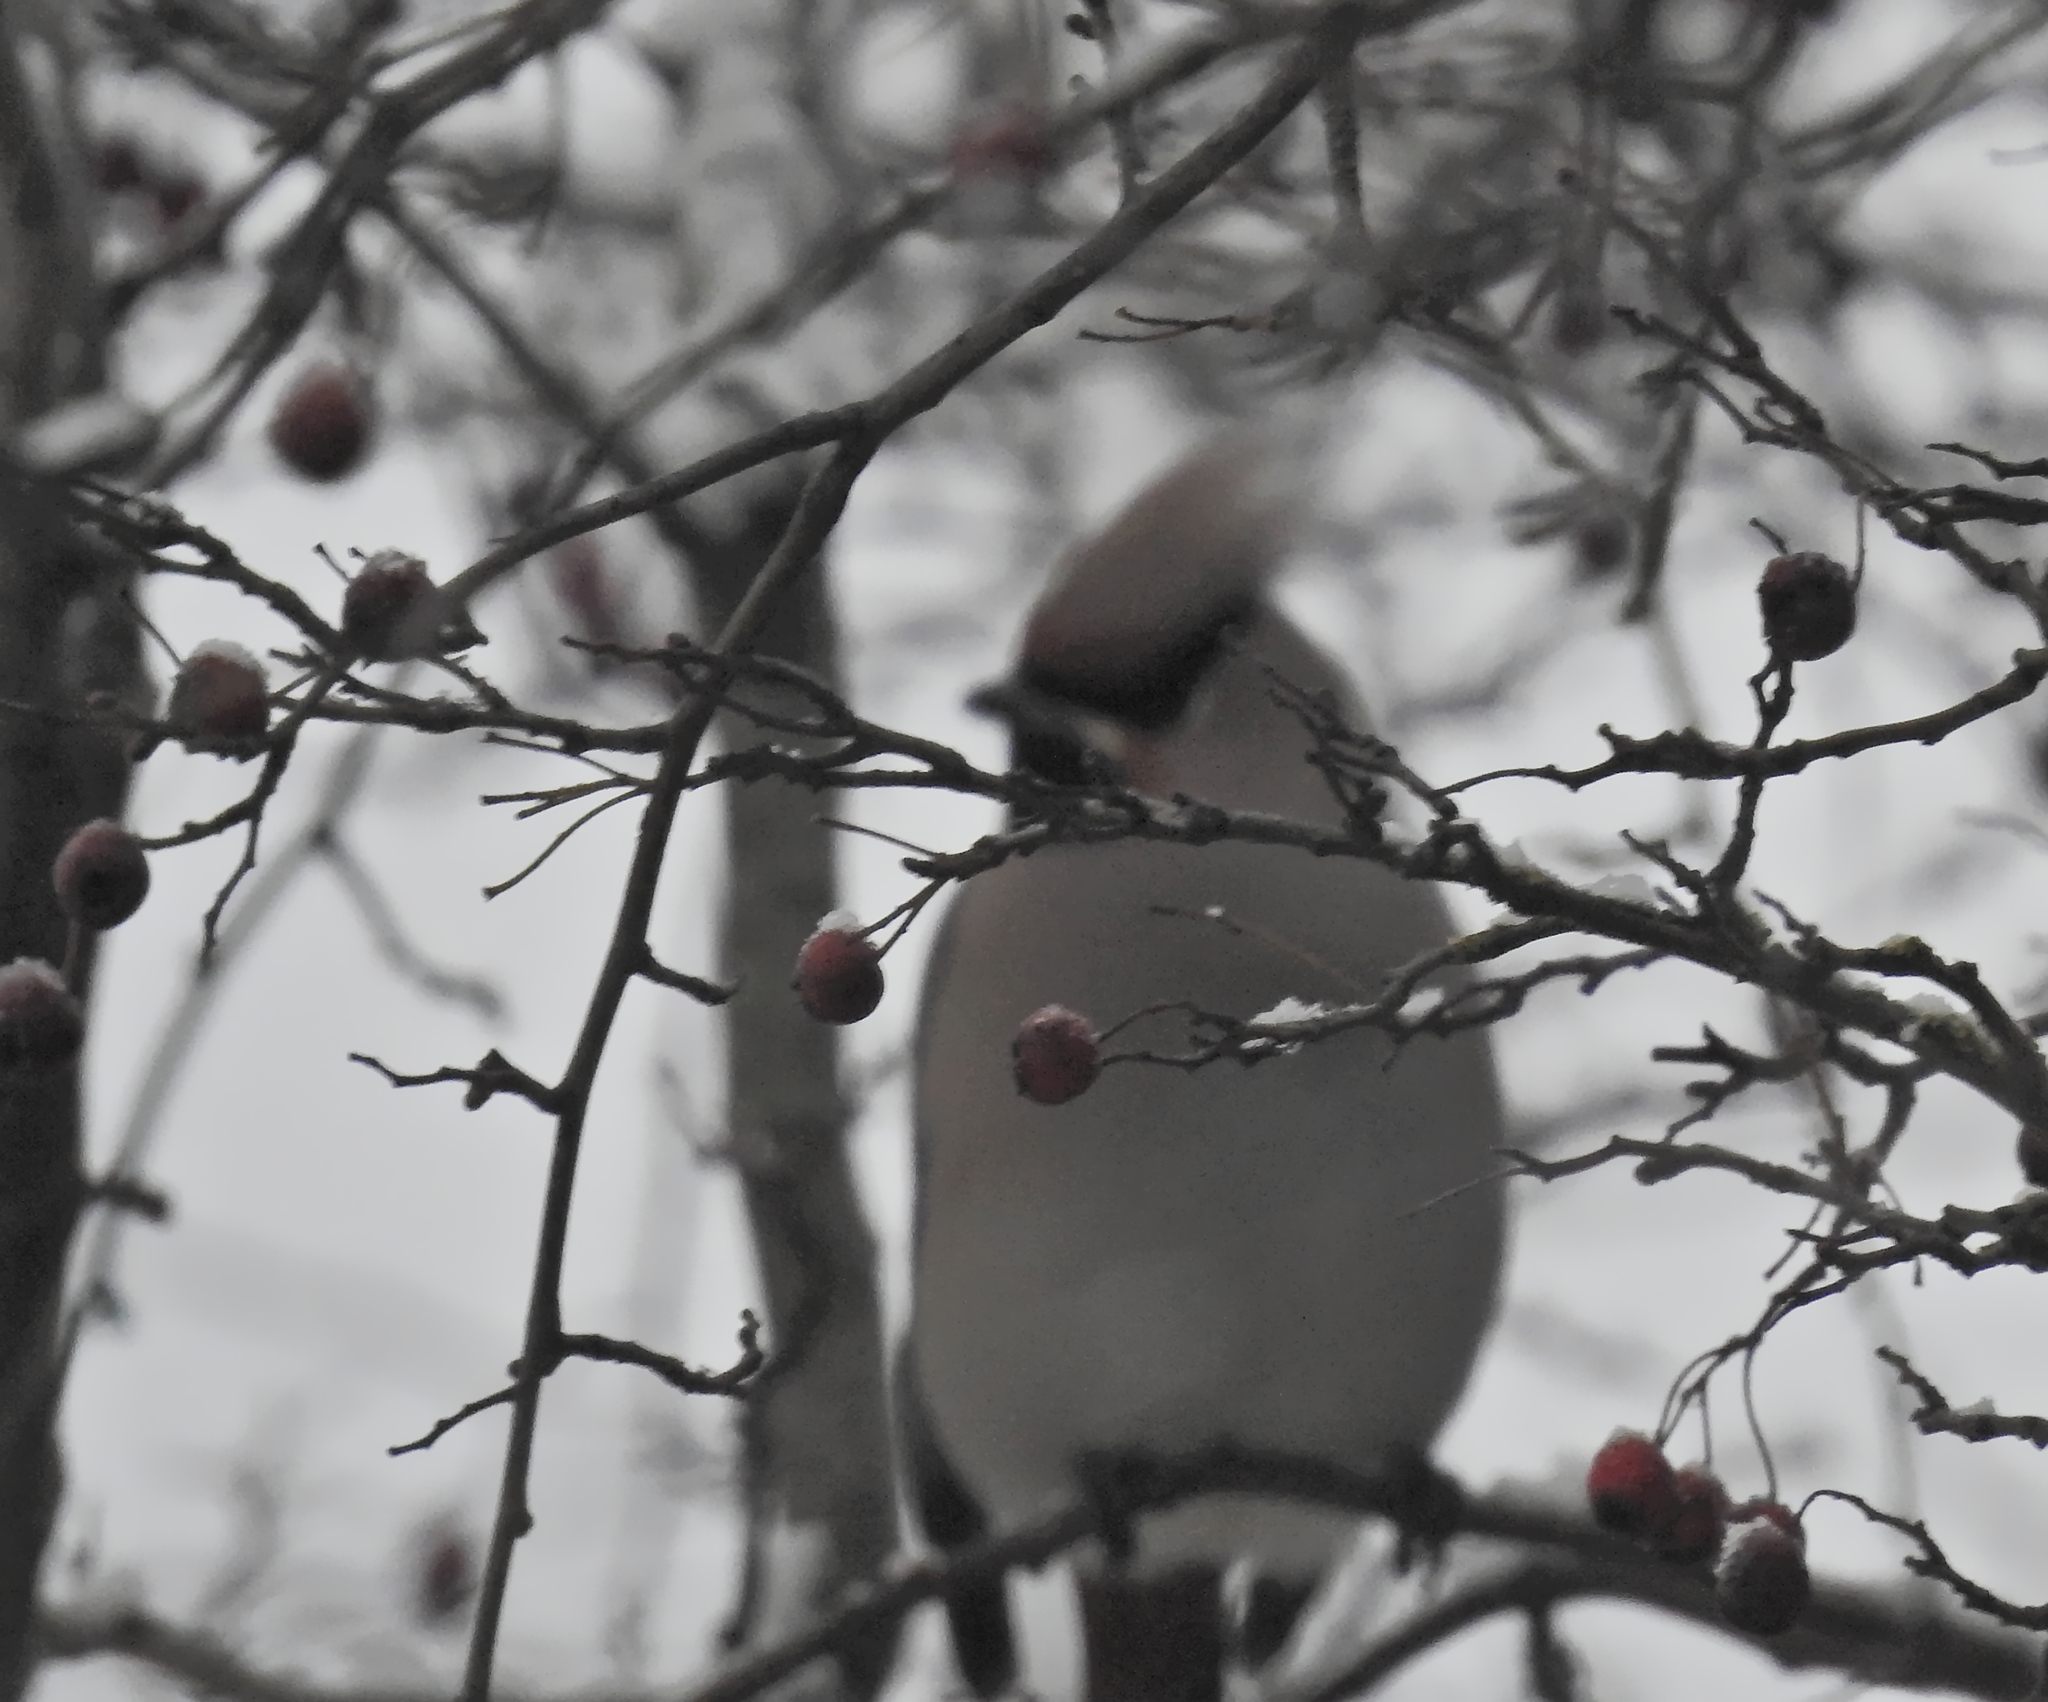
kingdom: Animalia
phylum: Chordata
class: Aves
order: Passeriformes
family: Bombycillidae
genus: Bombycilla
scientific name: Bombycilla garrulus
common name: Bohemian waxwing
